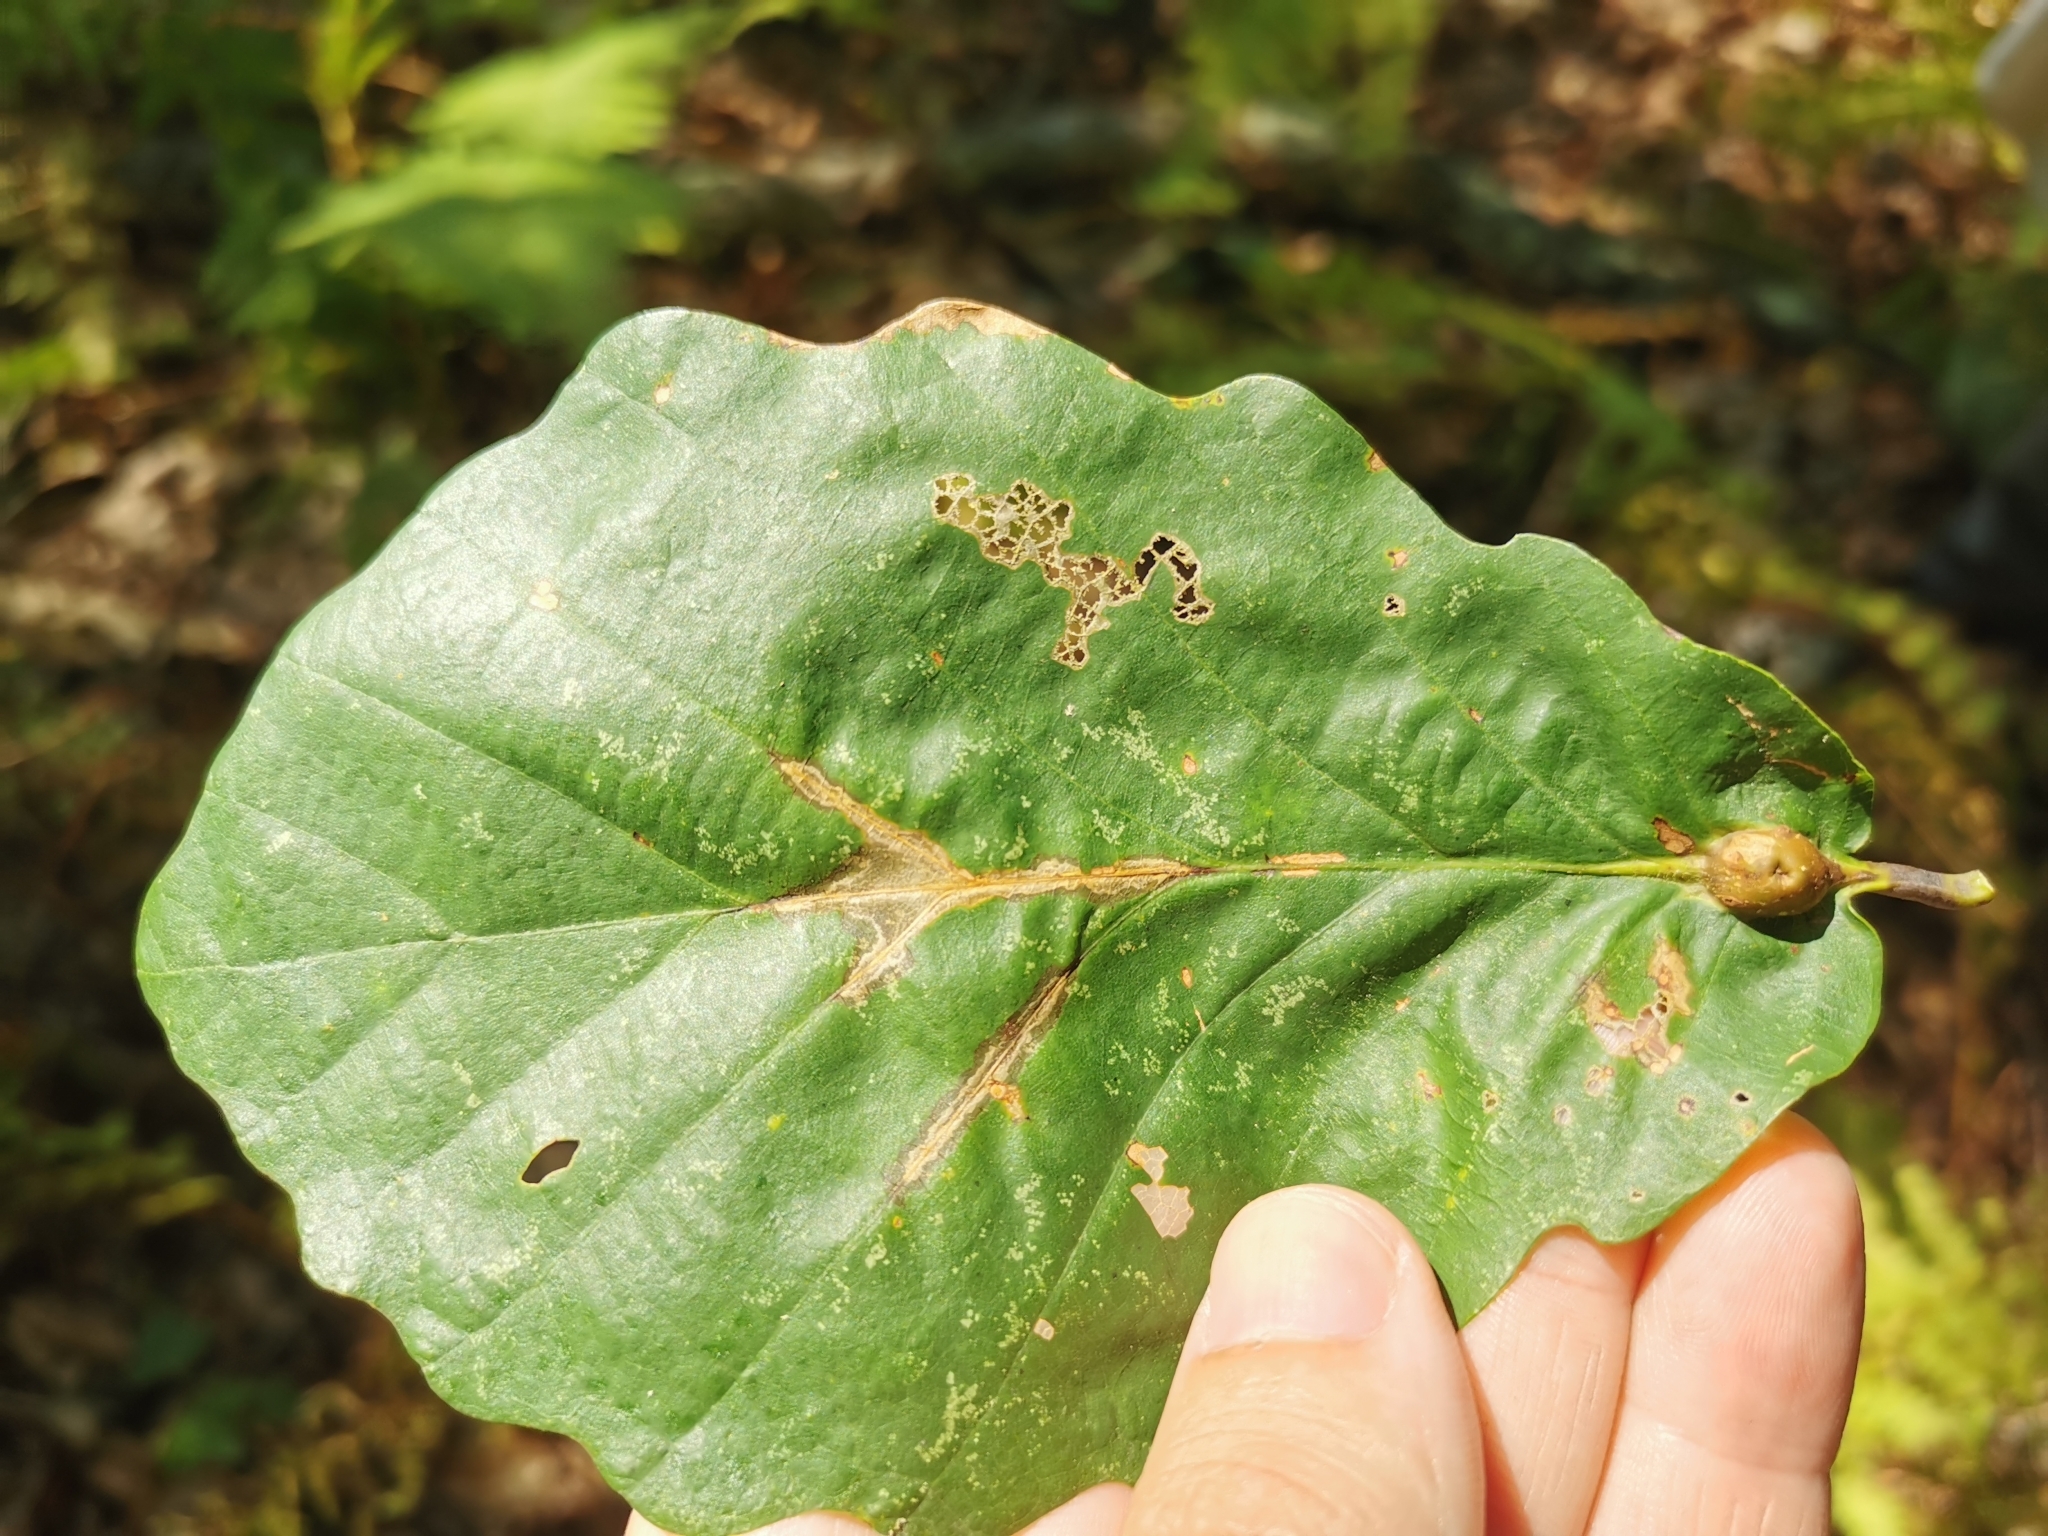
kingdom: Animalia
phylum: Arthropoda
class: Insecta
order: Hymenoptera
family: Cynipidae
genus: Andricus
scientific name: Andricus
